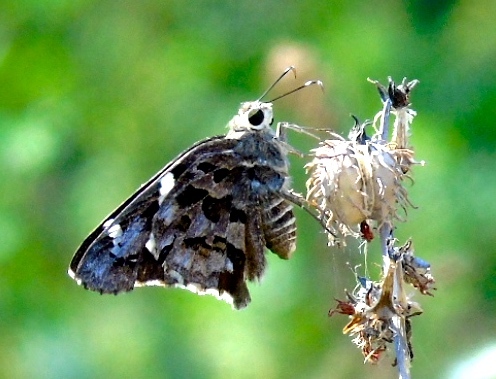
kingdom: Animalia
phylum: Arthropoda
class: Insecta
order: Lepidoptera
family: Hesperiidae
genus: Codatractus
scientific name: Codatractus arizonensis
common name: Arizona skipper
